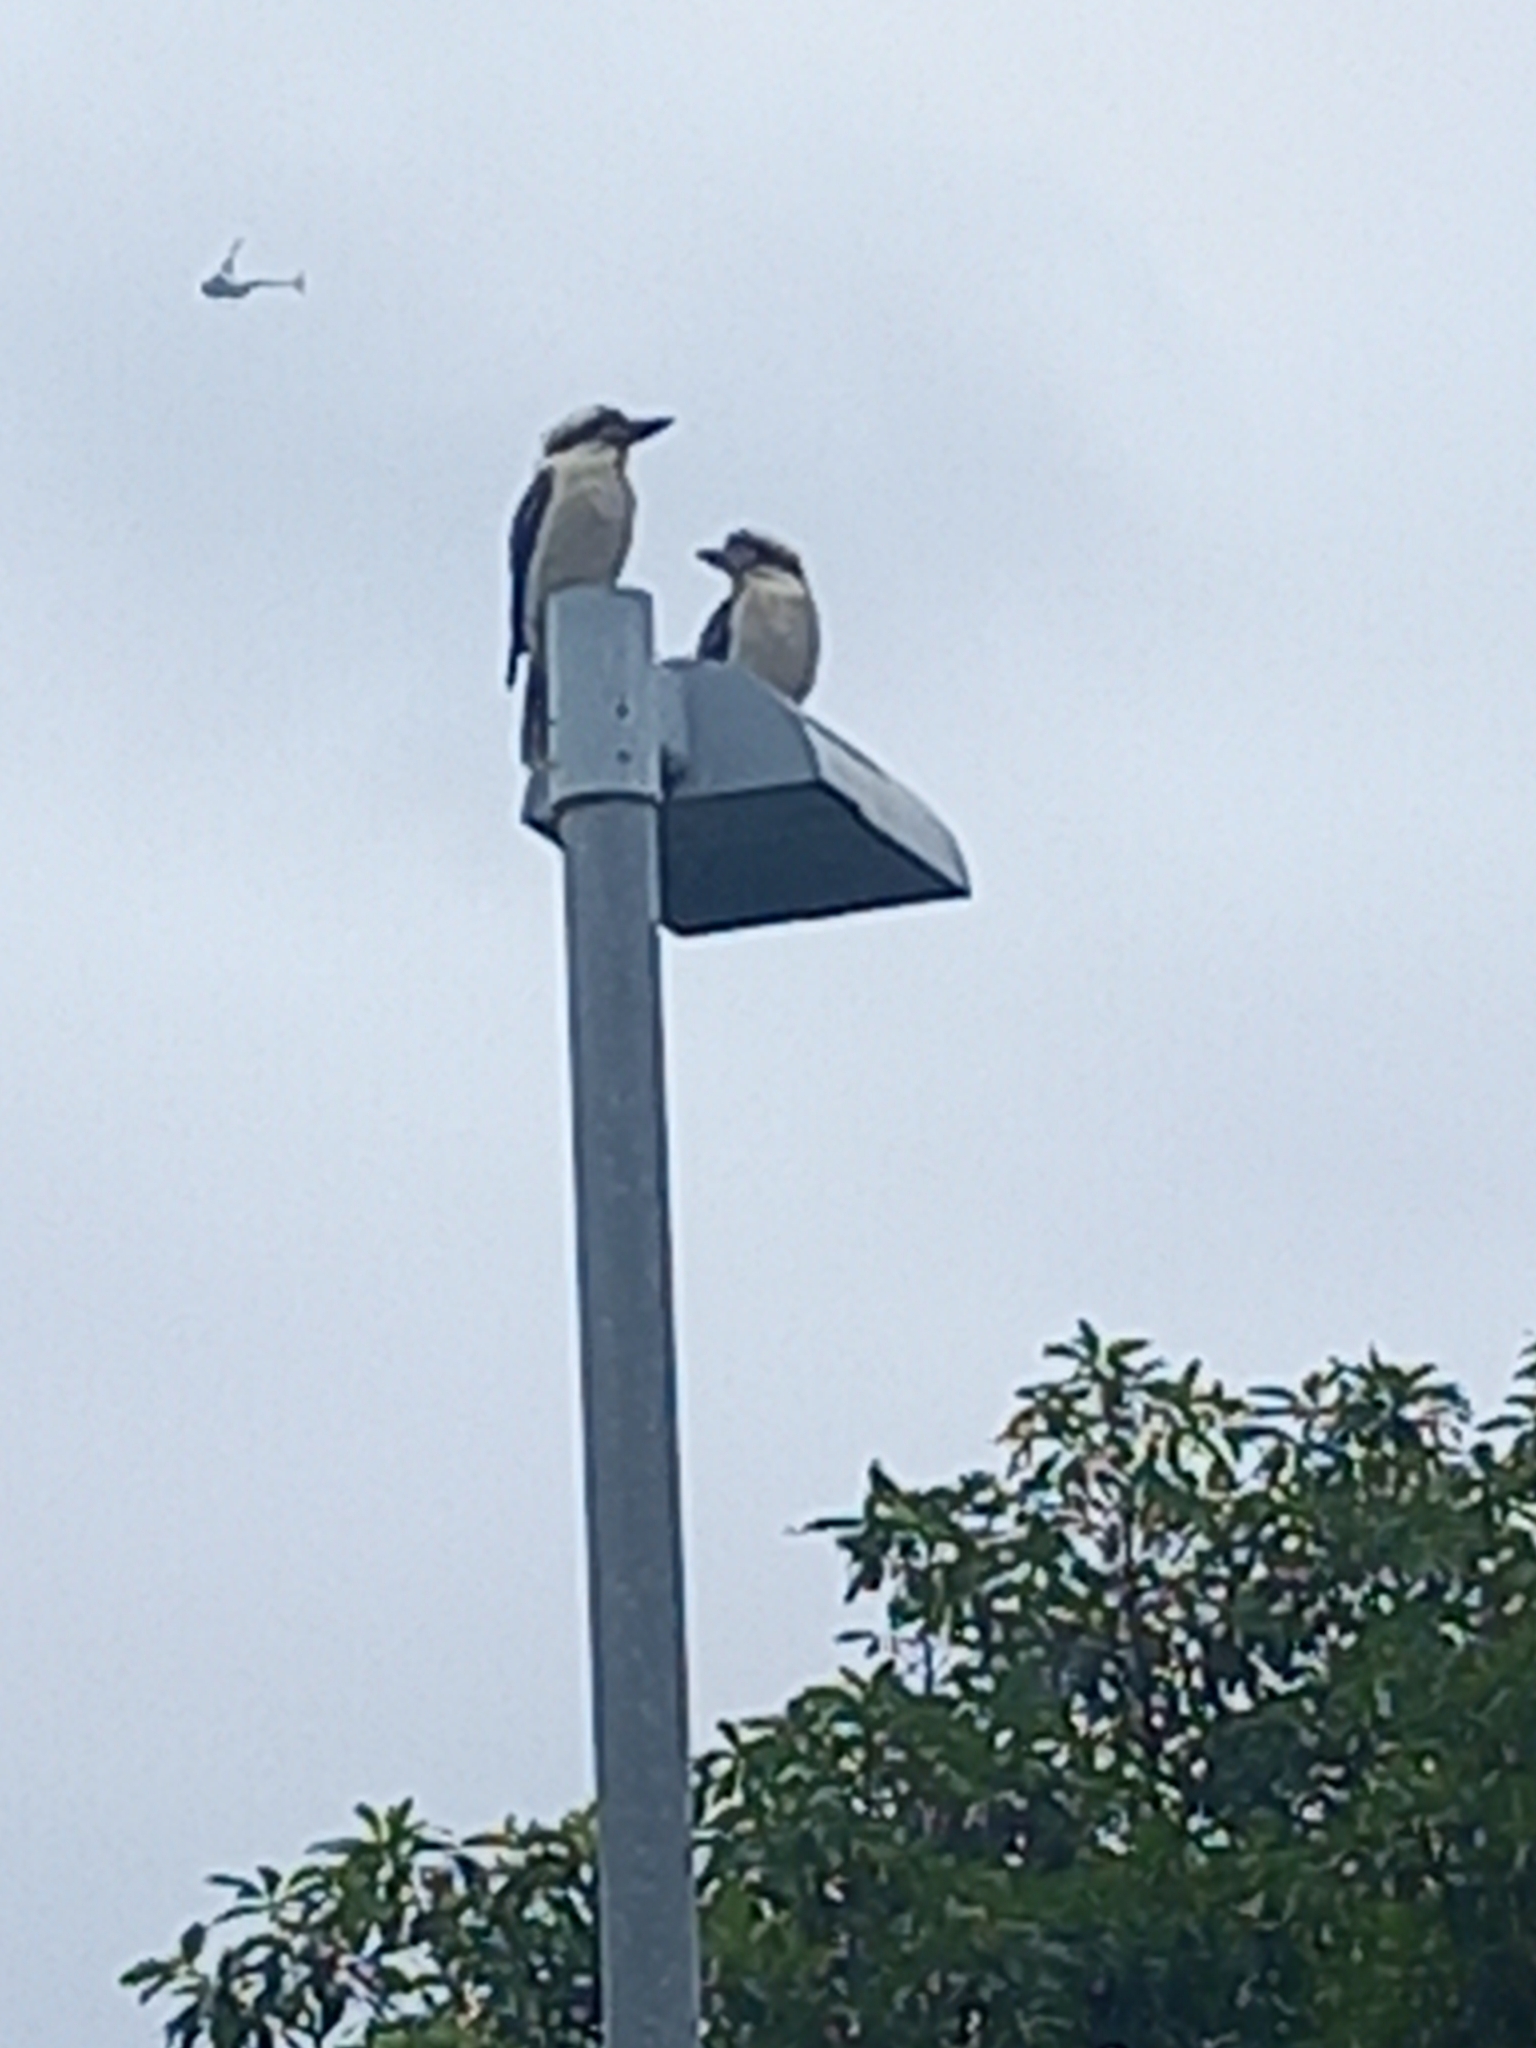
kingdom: Animalia
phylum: Chordata
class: Aves
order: Coraciiformes
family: Alcedinidae
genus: Dacelo
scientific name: Dacelo novaeguineae
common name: Laughing kookaburra
